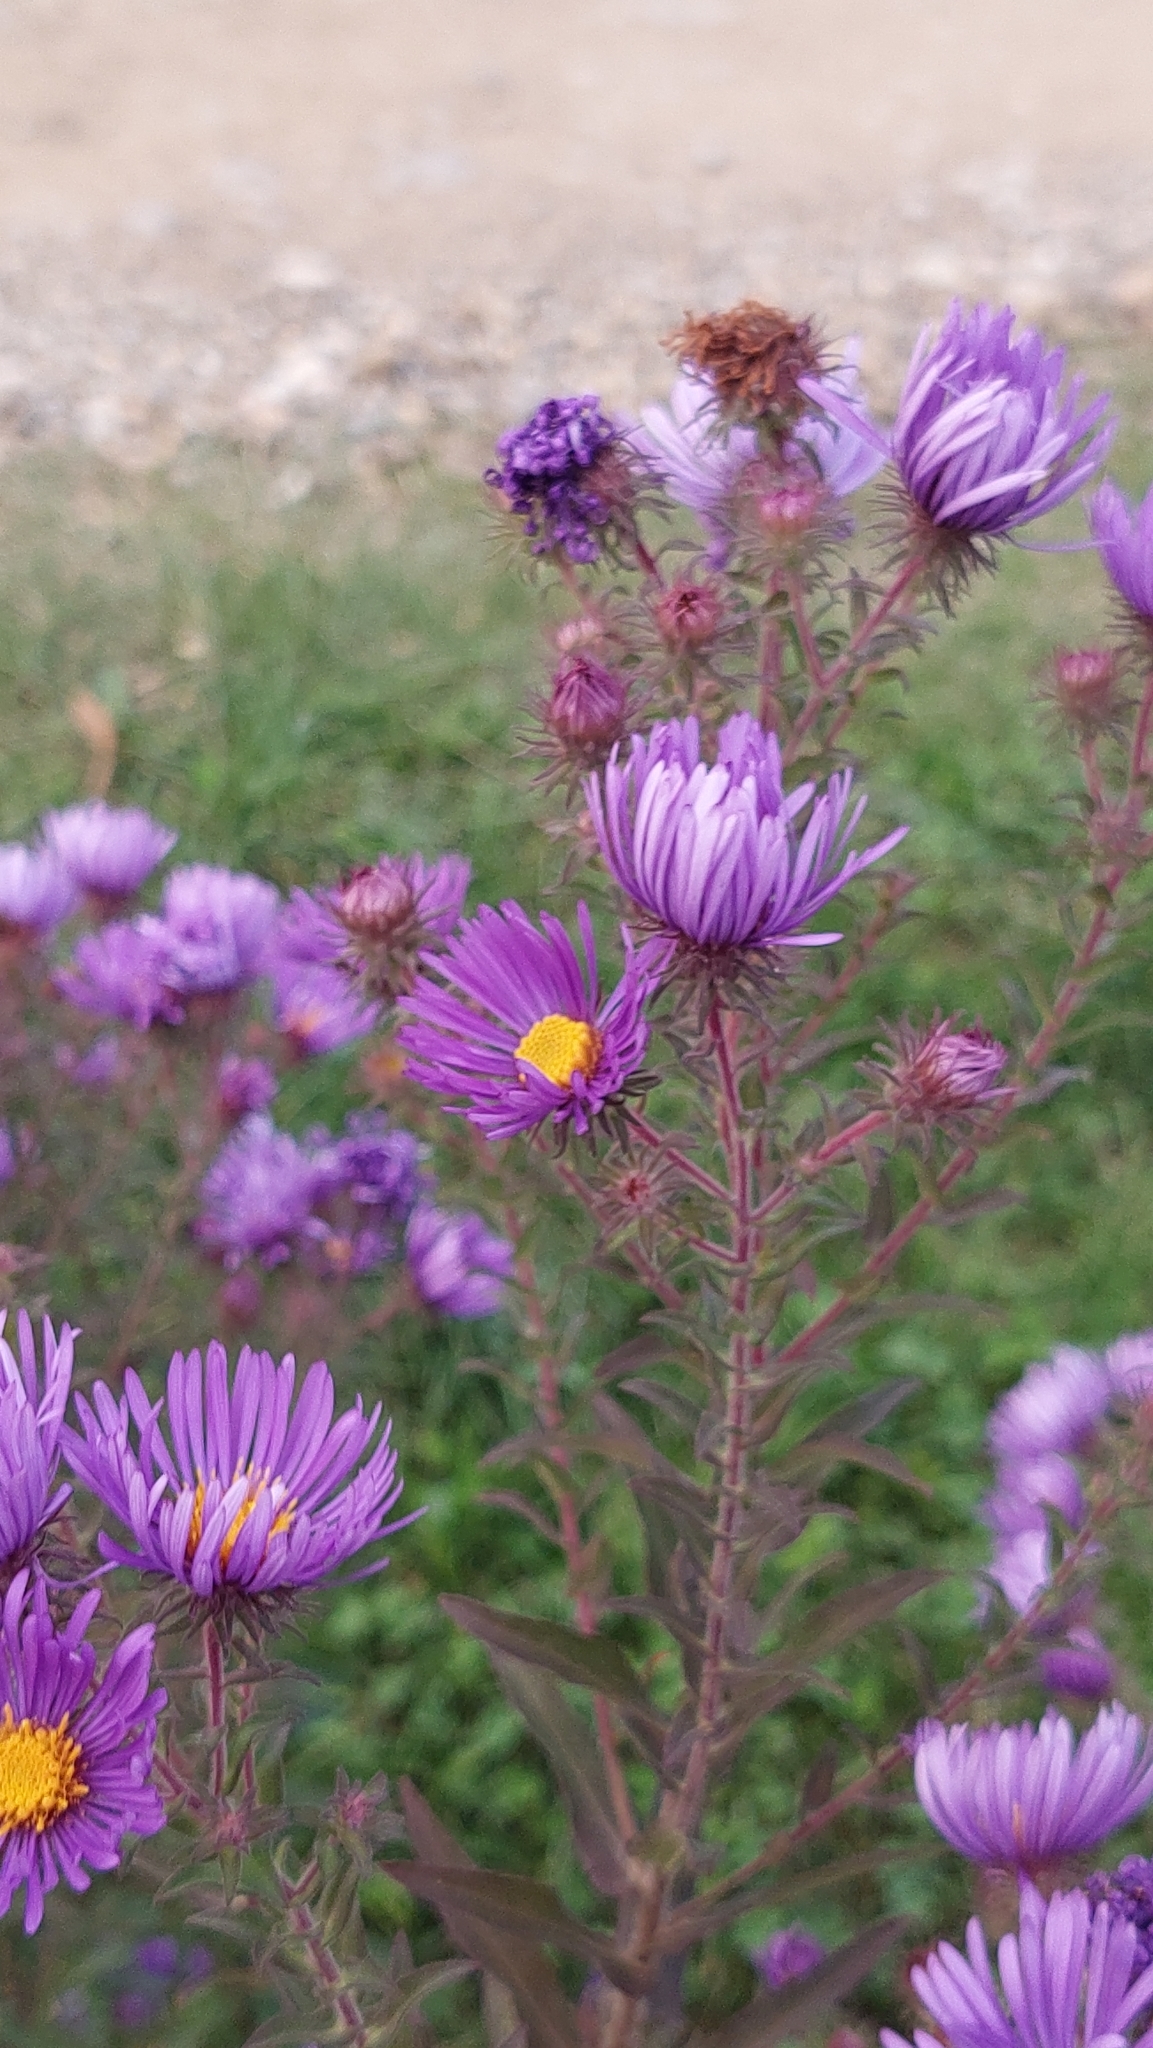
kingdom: Plantae
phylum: Tracheophyta
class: Magnoliopsida
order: Asterales
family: Asteraceae
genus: Symphyotrichum
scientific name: Symphyotrichum novae-angliae
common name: Michaelmas daisy
